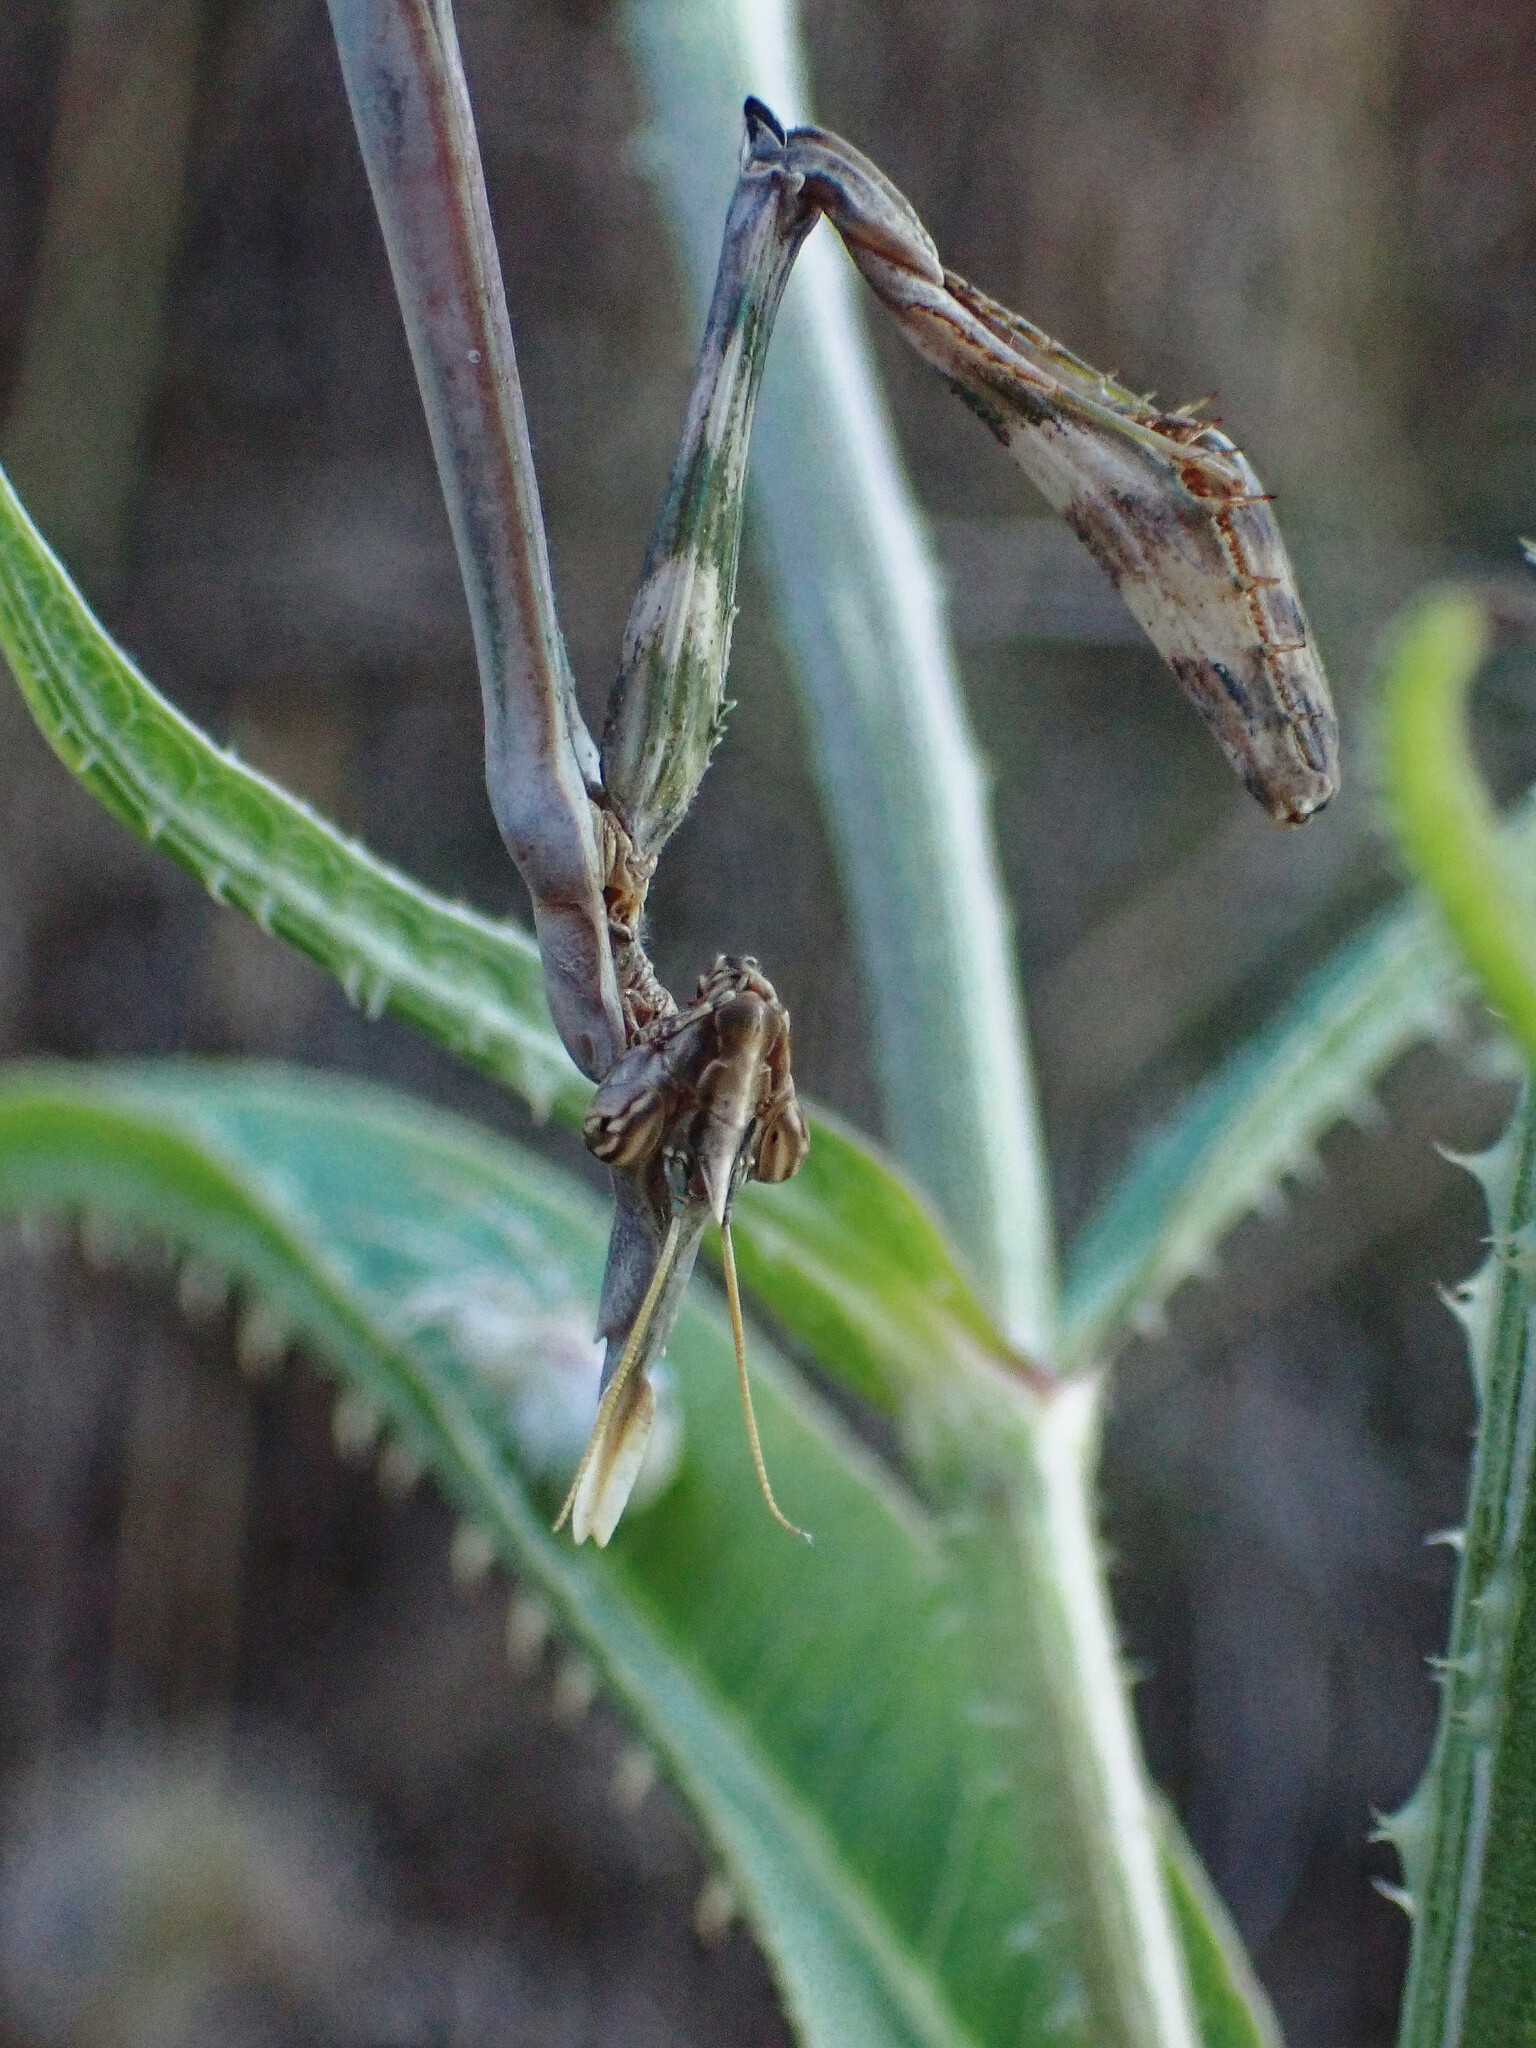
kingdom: Animalia
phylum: Arthropoda
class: Insecta
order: Mantodea
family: Empusidae
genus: Empusa
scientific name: Empusa pennata
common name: Conehead mantis
